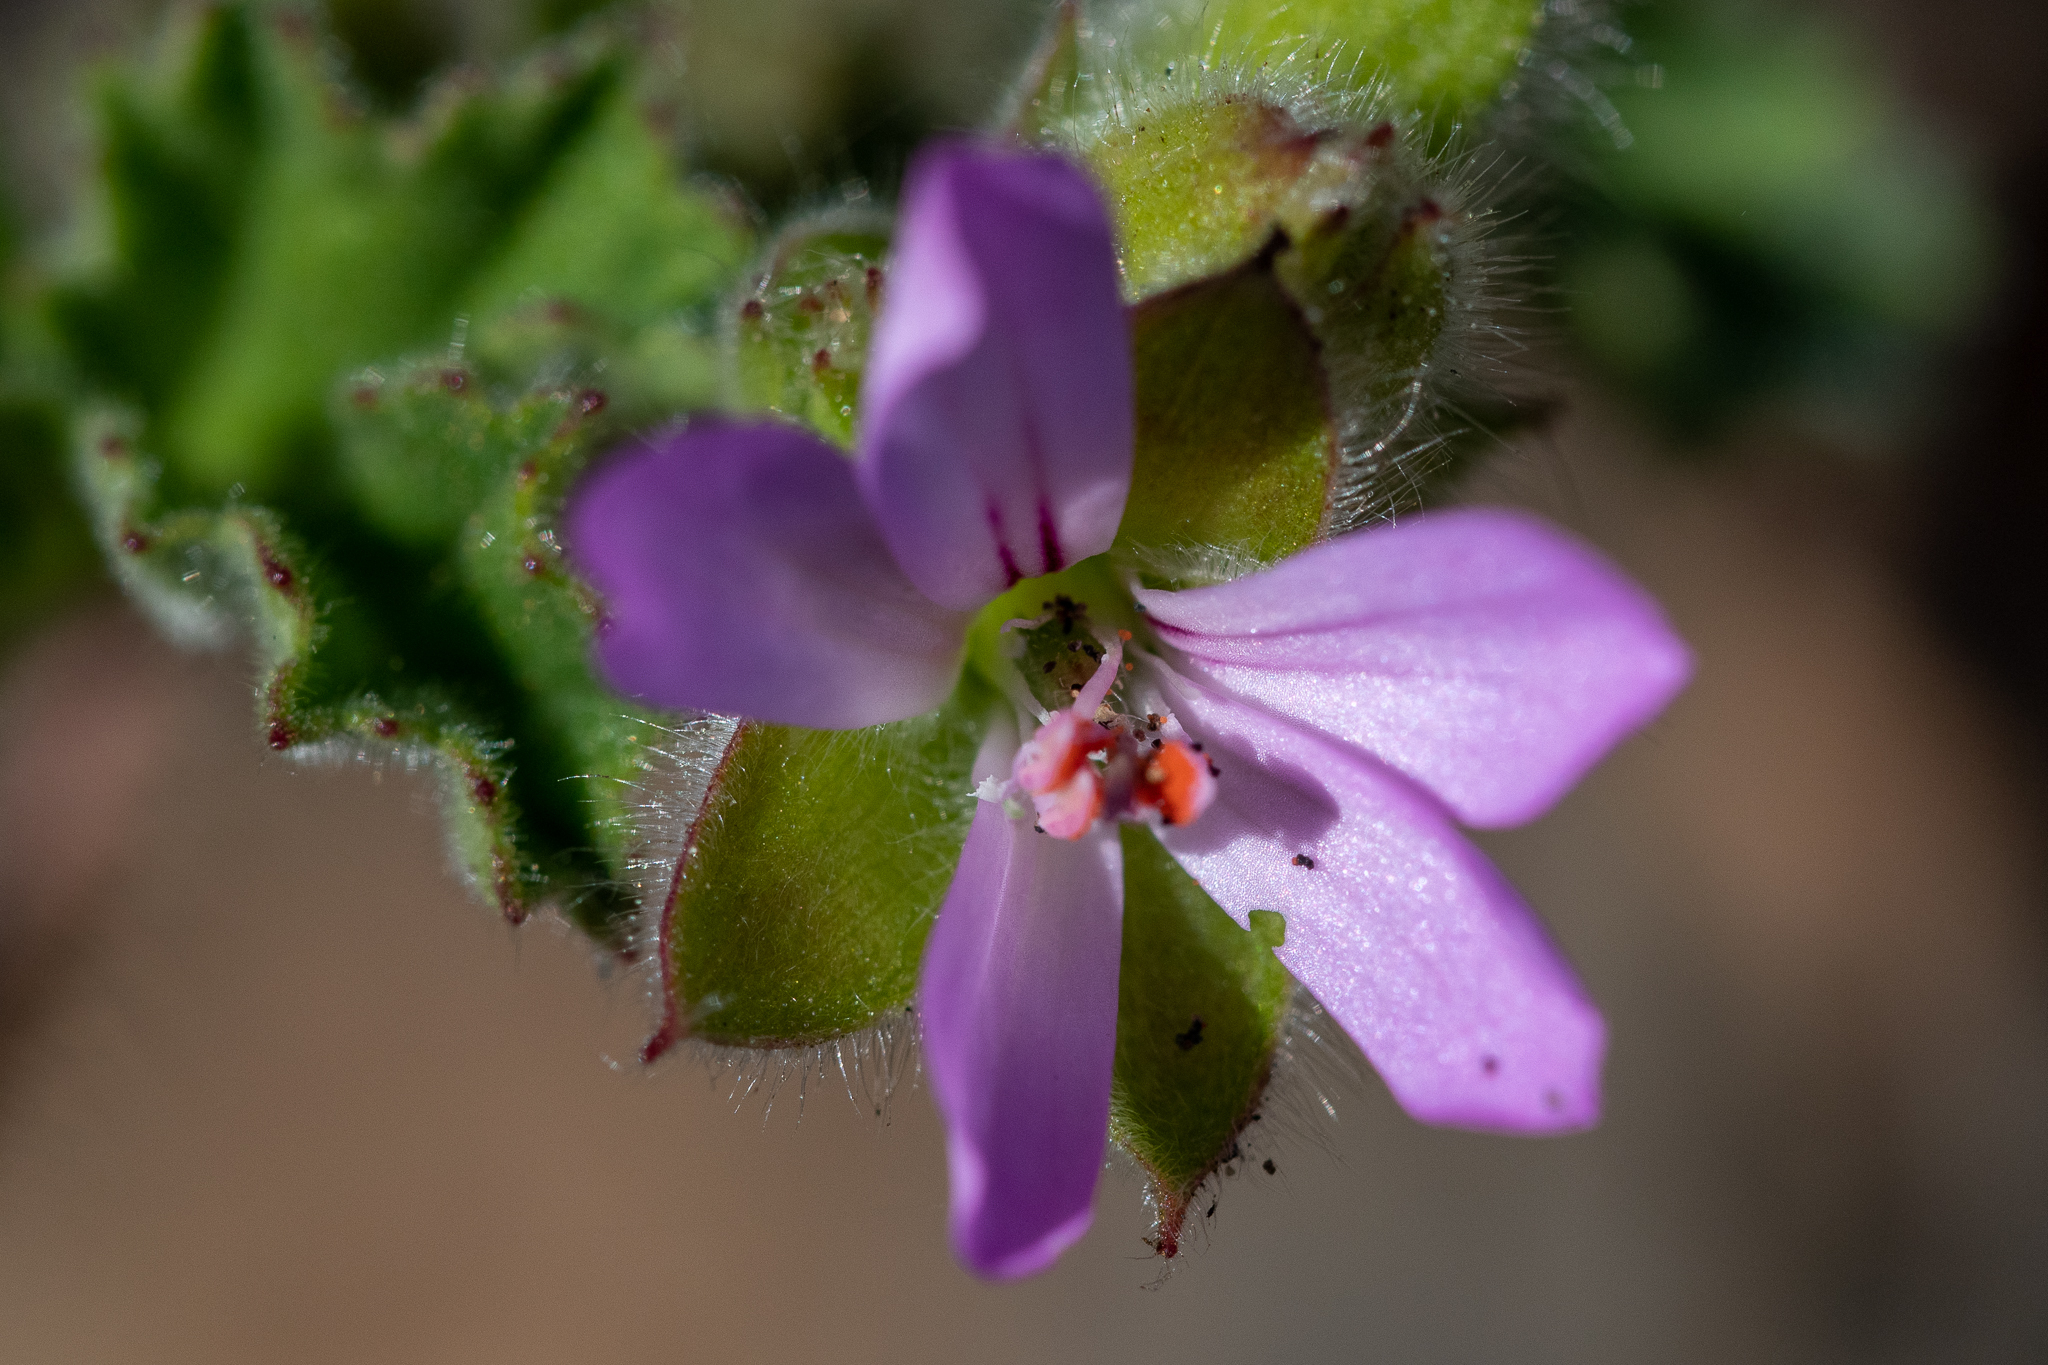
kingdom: Plantae
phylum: Tracheophyta
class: Magnoliopsida
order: Geraniales
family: Geraniaceae
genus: Pelargonium
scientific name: Pelargonium capitatum
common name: Rose scented geranium
